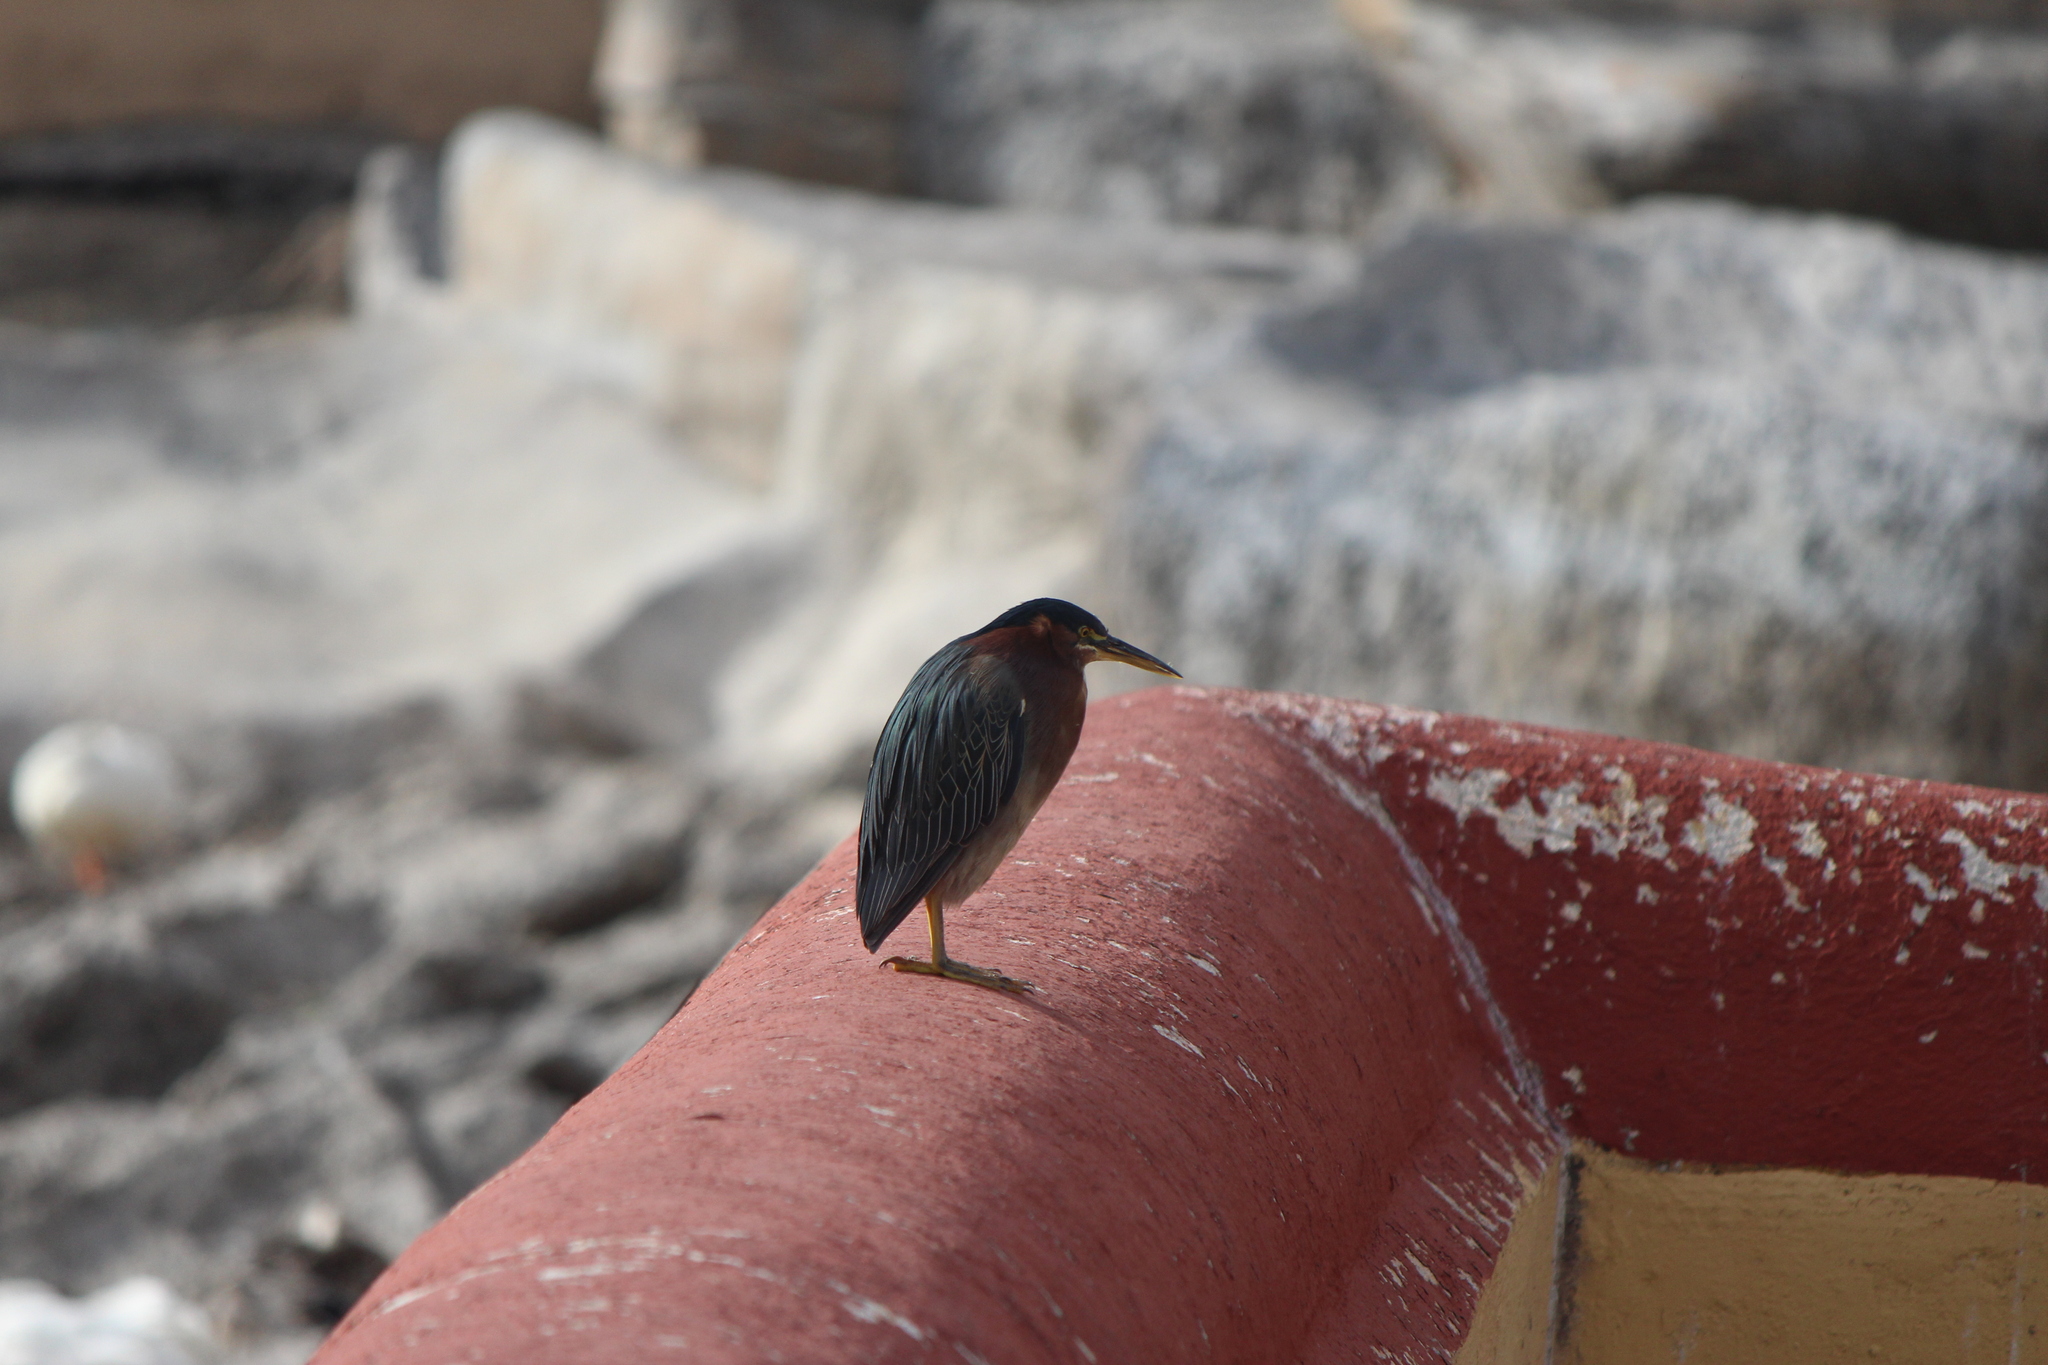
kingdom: Animalia
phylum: Chordata
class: Aves
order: Pelecaniformes
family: Ardeidae
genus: Butorides
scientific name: Butorides virescens
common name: Green heron
